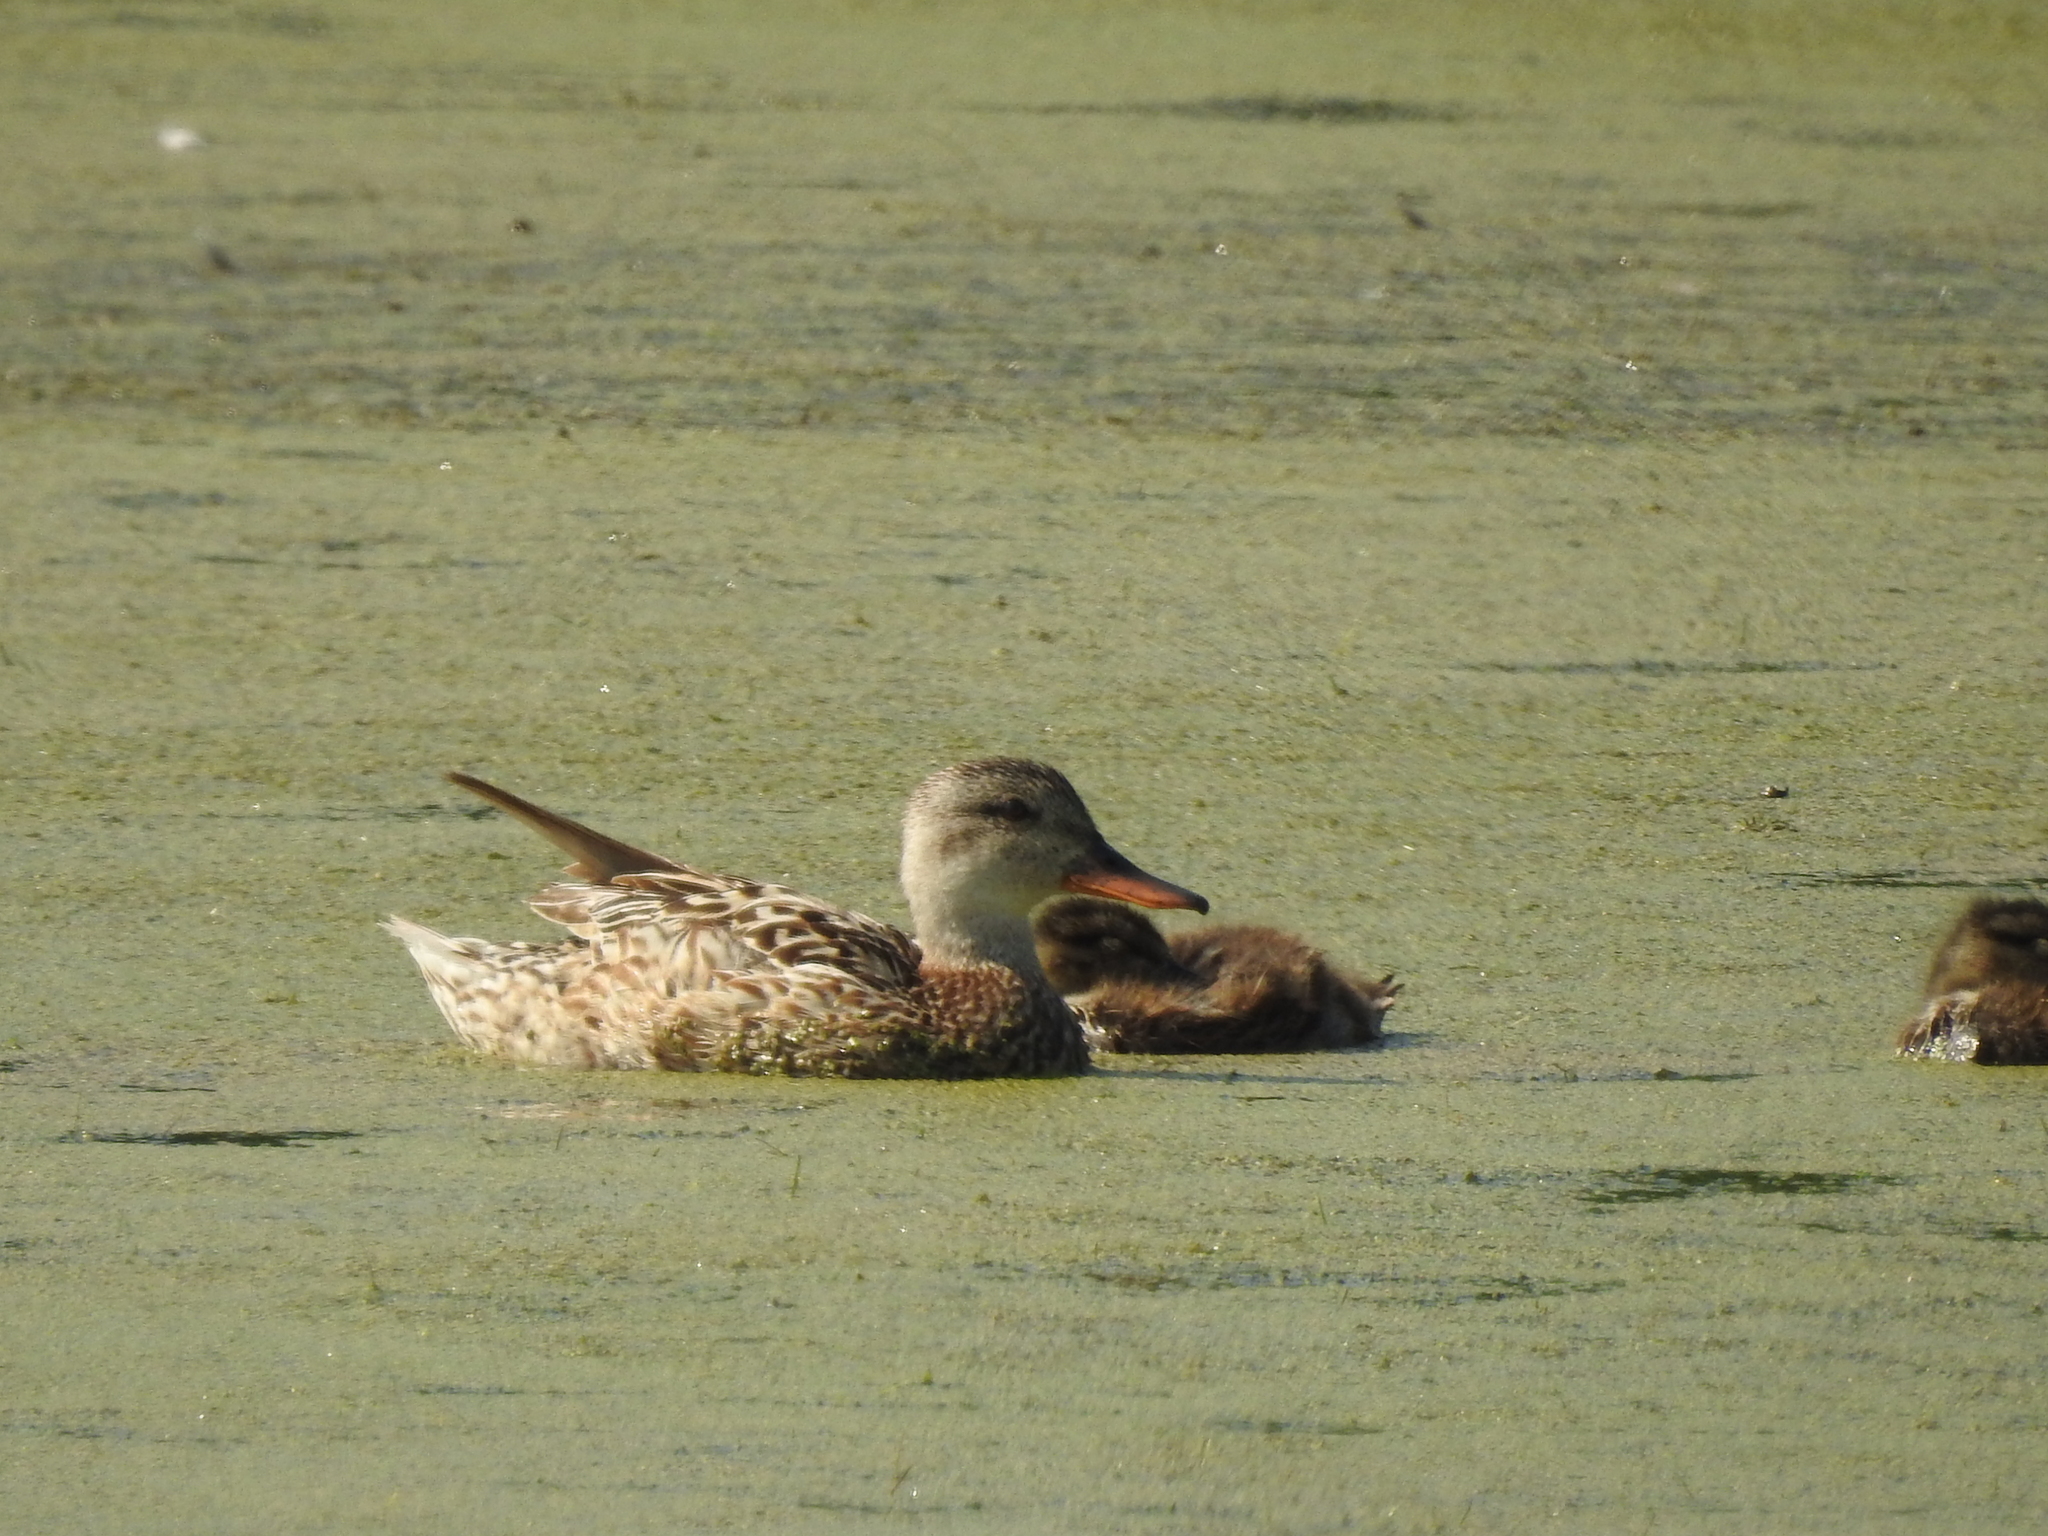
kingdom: Animalia
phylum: Chordata
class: Aves
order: Anseriformes
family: Anatidae
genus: Mareca
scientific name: Mareca strepera
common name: Gadwall
